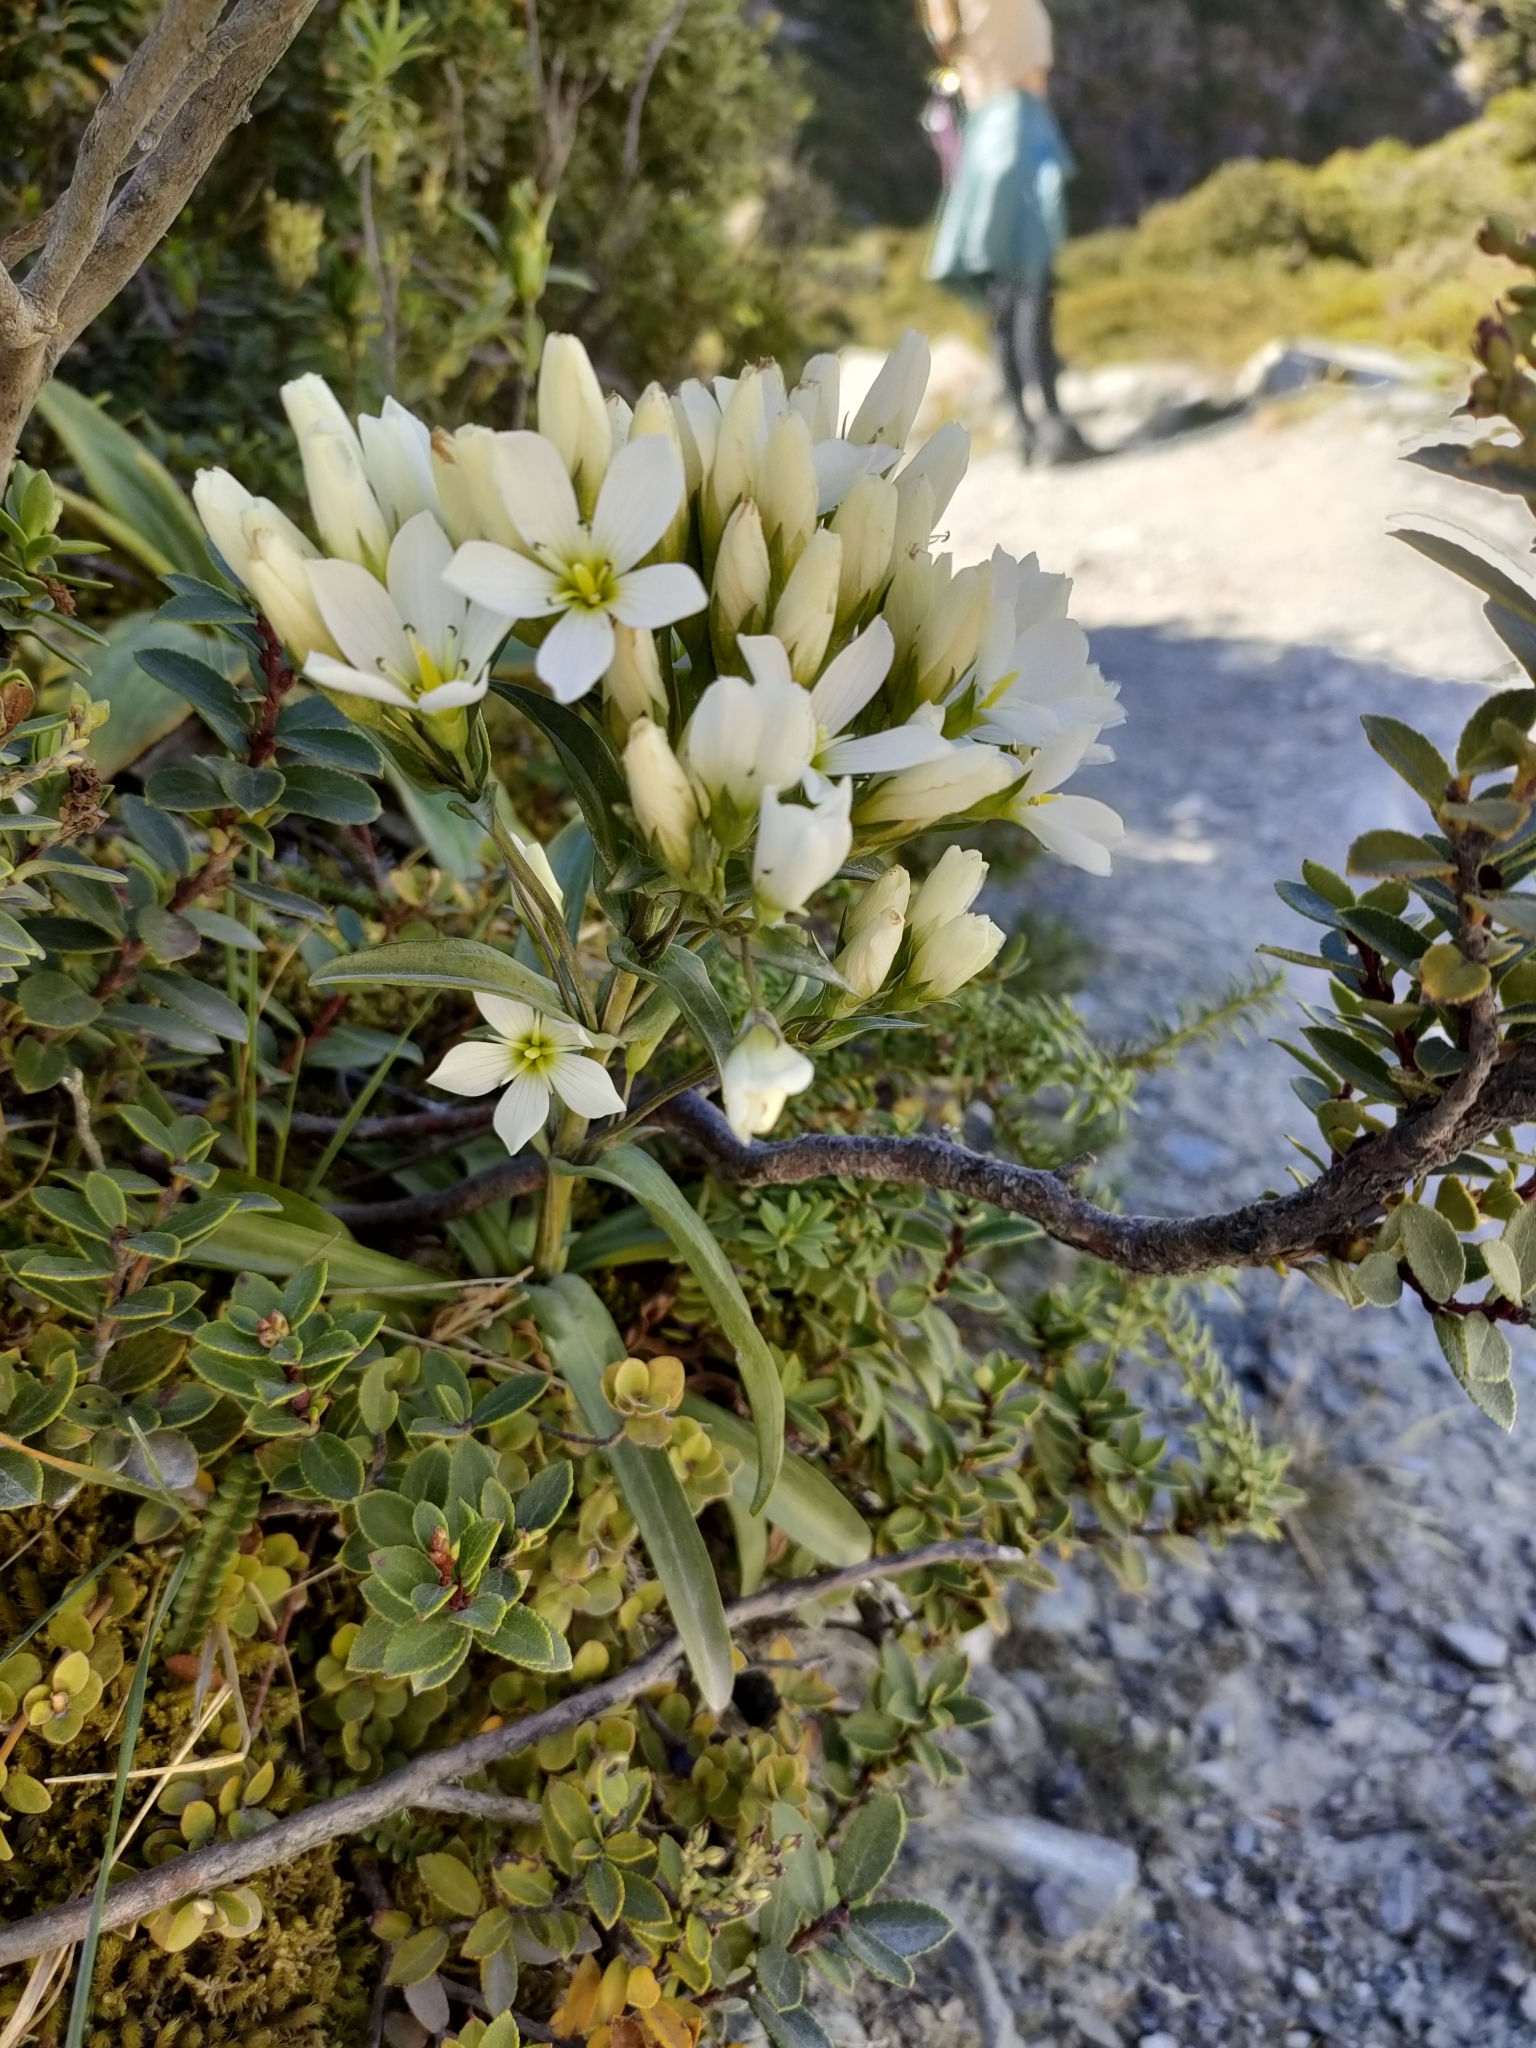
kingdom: Plantae
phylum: Tracheophyta
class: Magnoliopsida
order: Gentianales
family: Gentianaceae
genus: Gentianella
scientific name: Gentianella corymbifera
